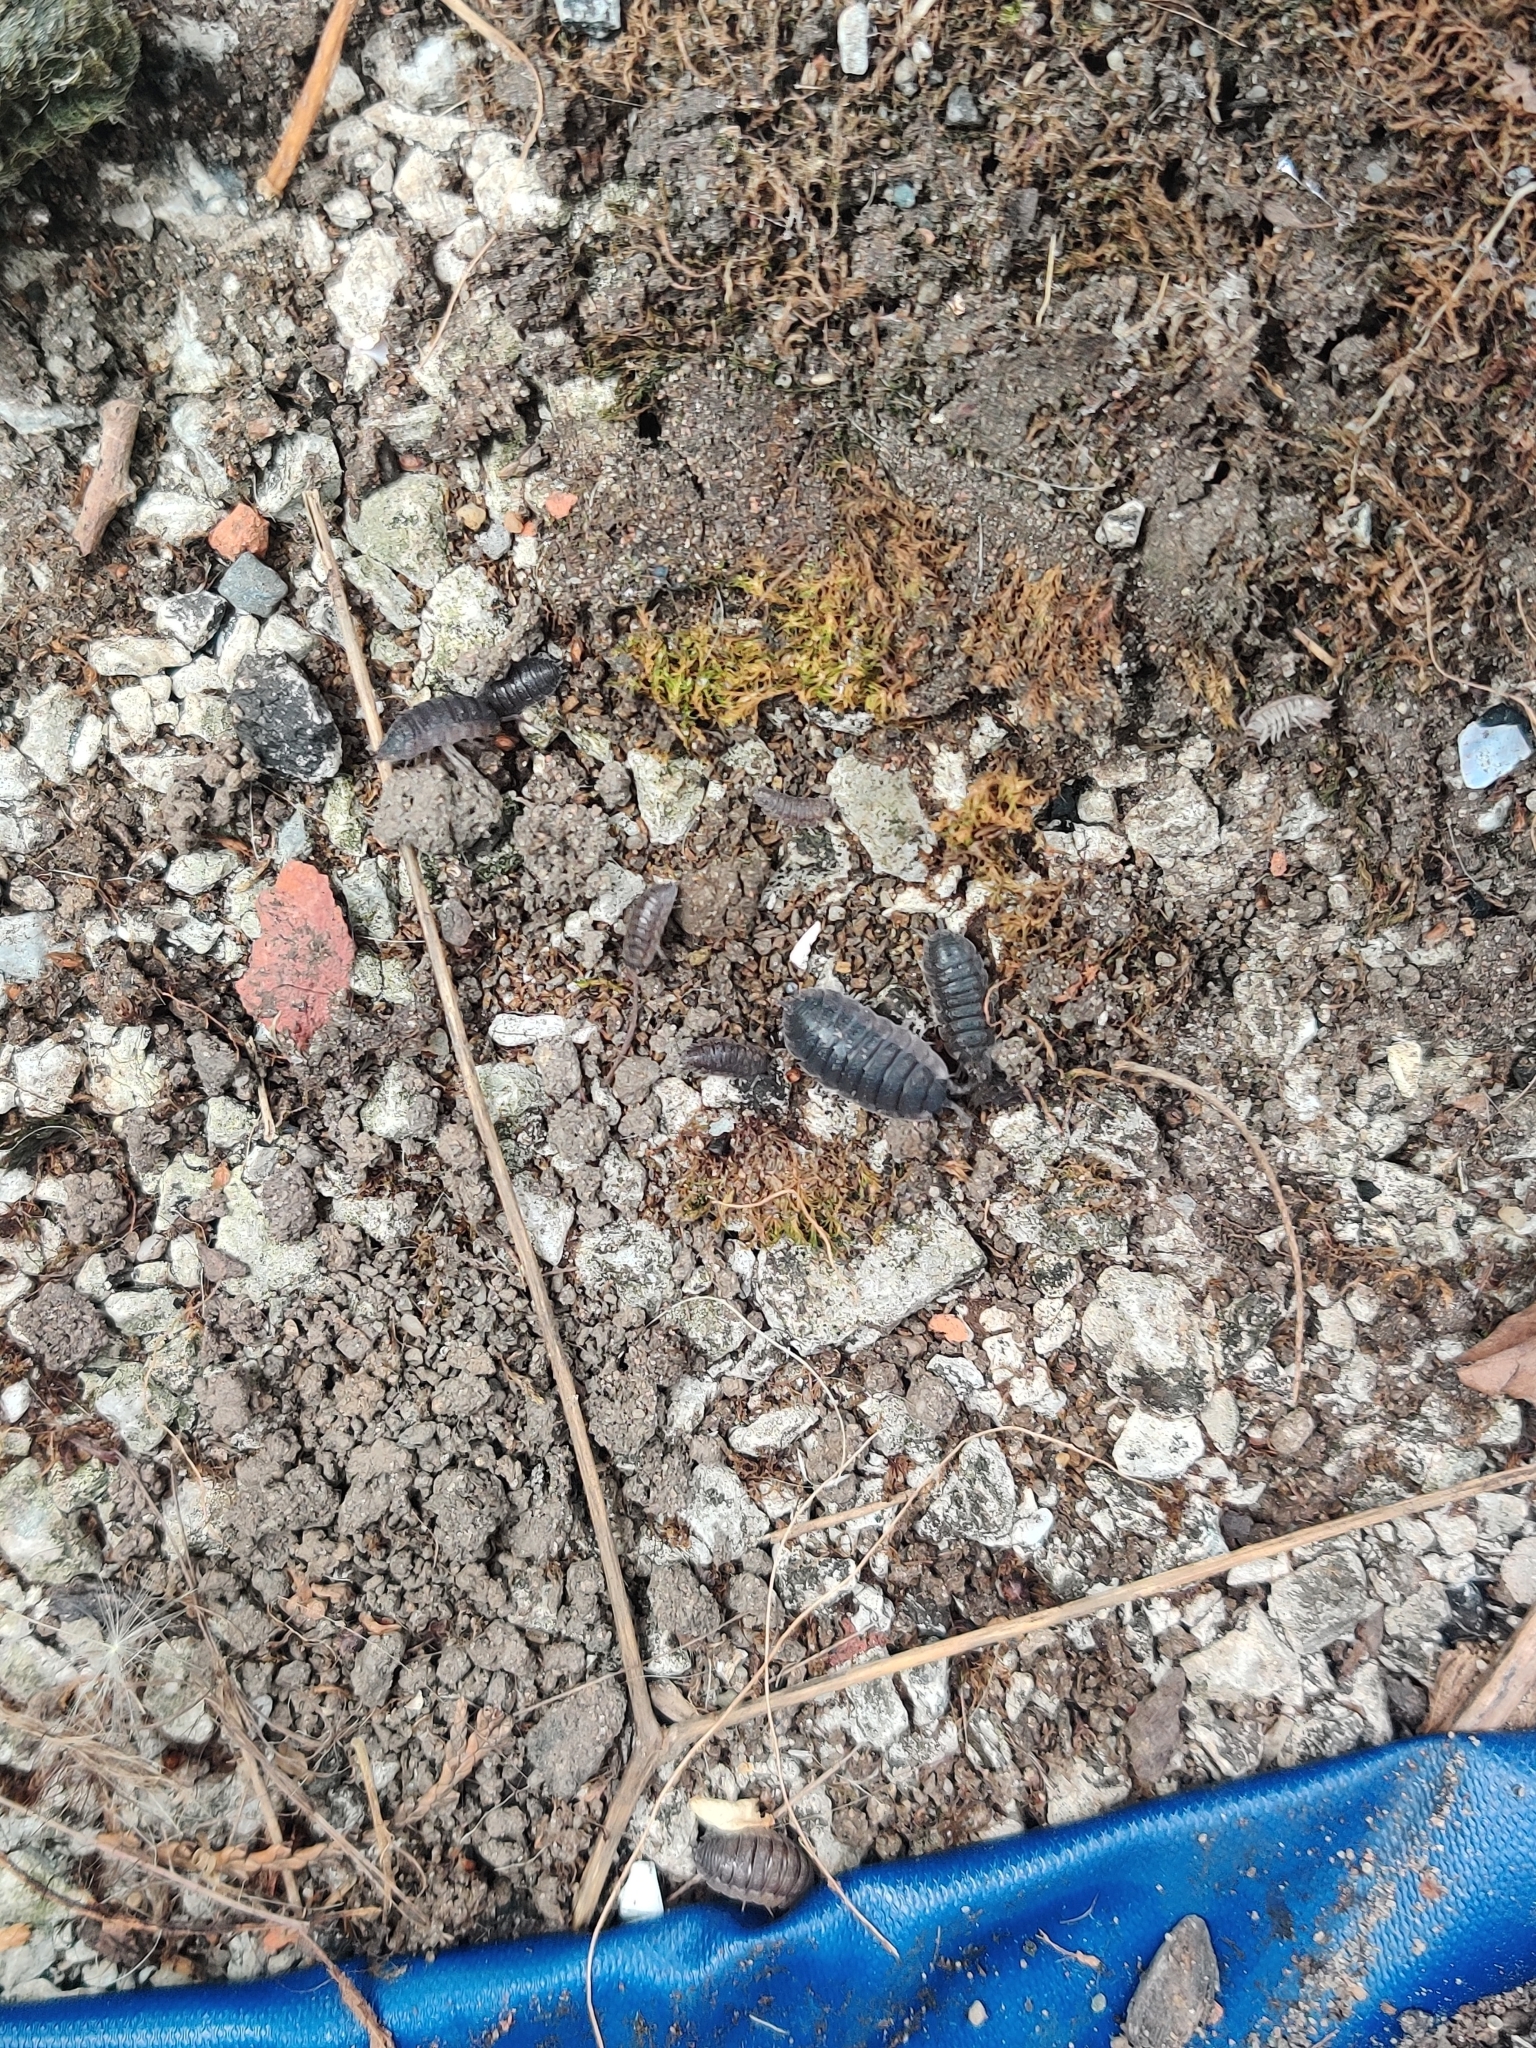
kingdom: Animalia
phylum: Arthropoda
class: Malacostraca
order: Isopoda
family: Porcellionidae
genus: Porcellio
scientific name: Porcellio scaber
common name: Common rough woodlouse
